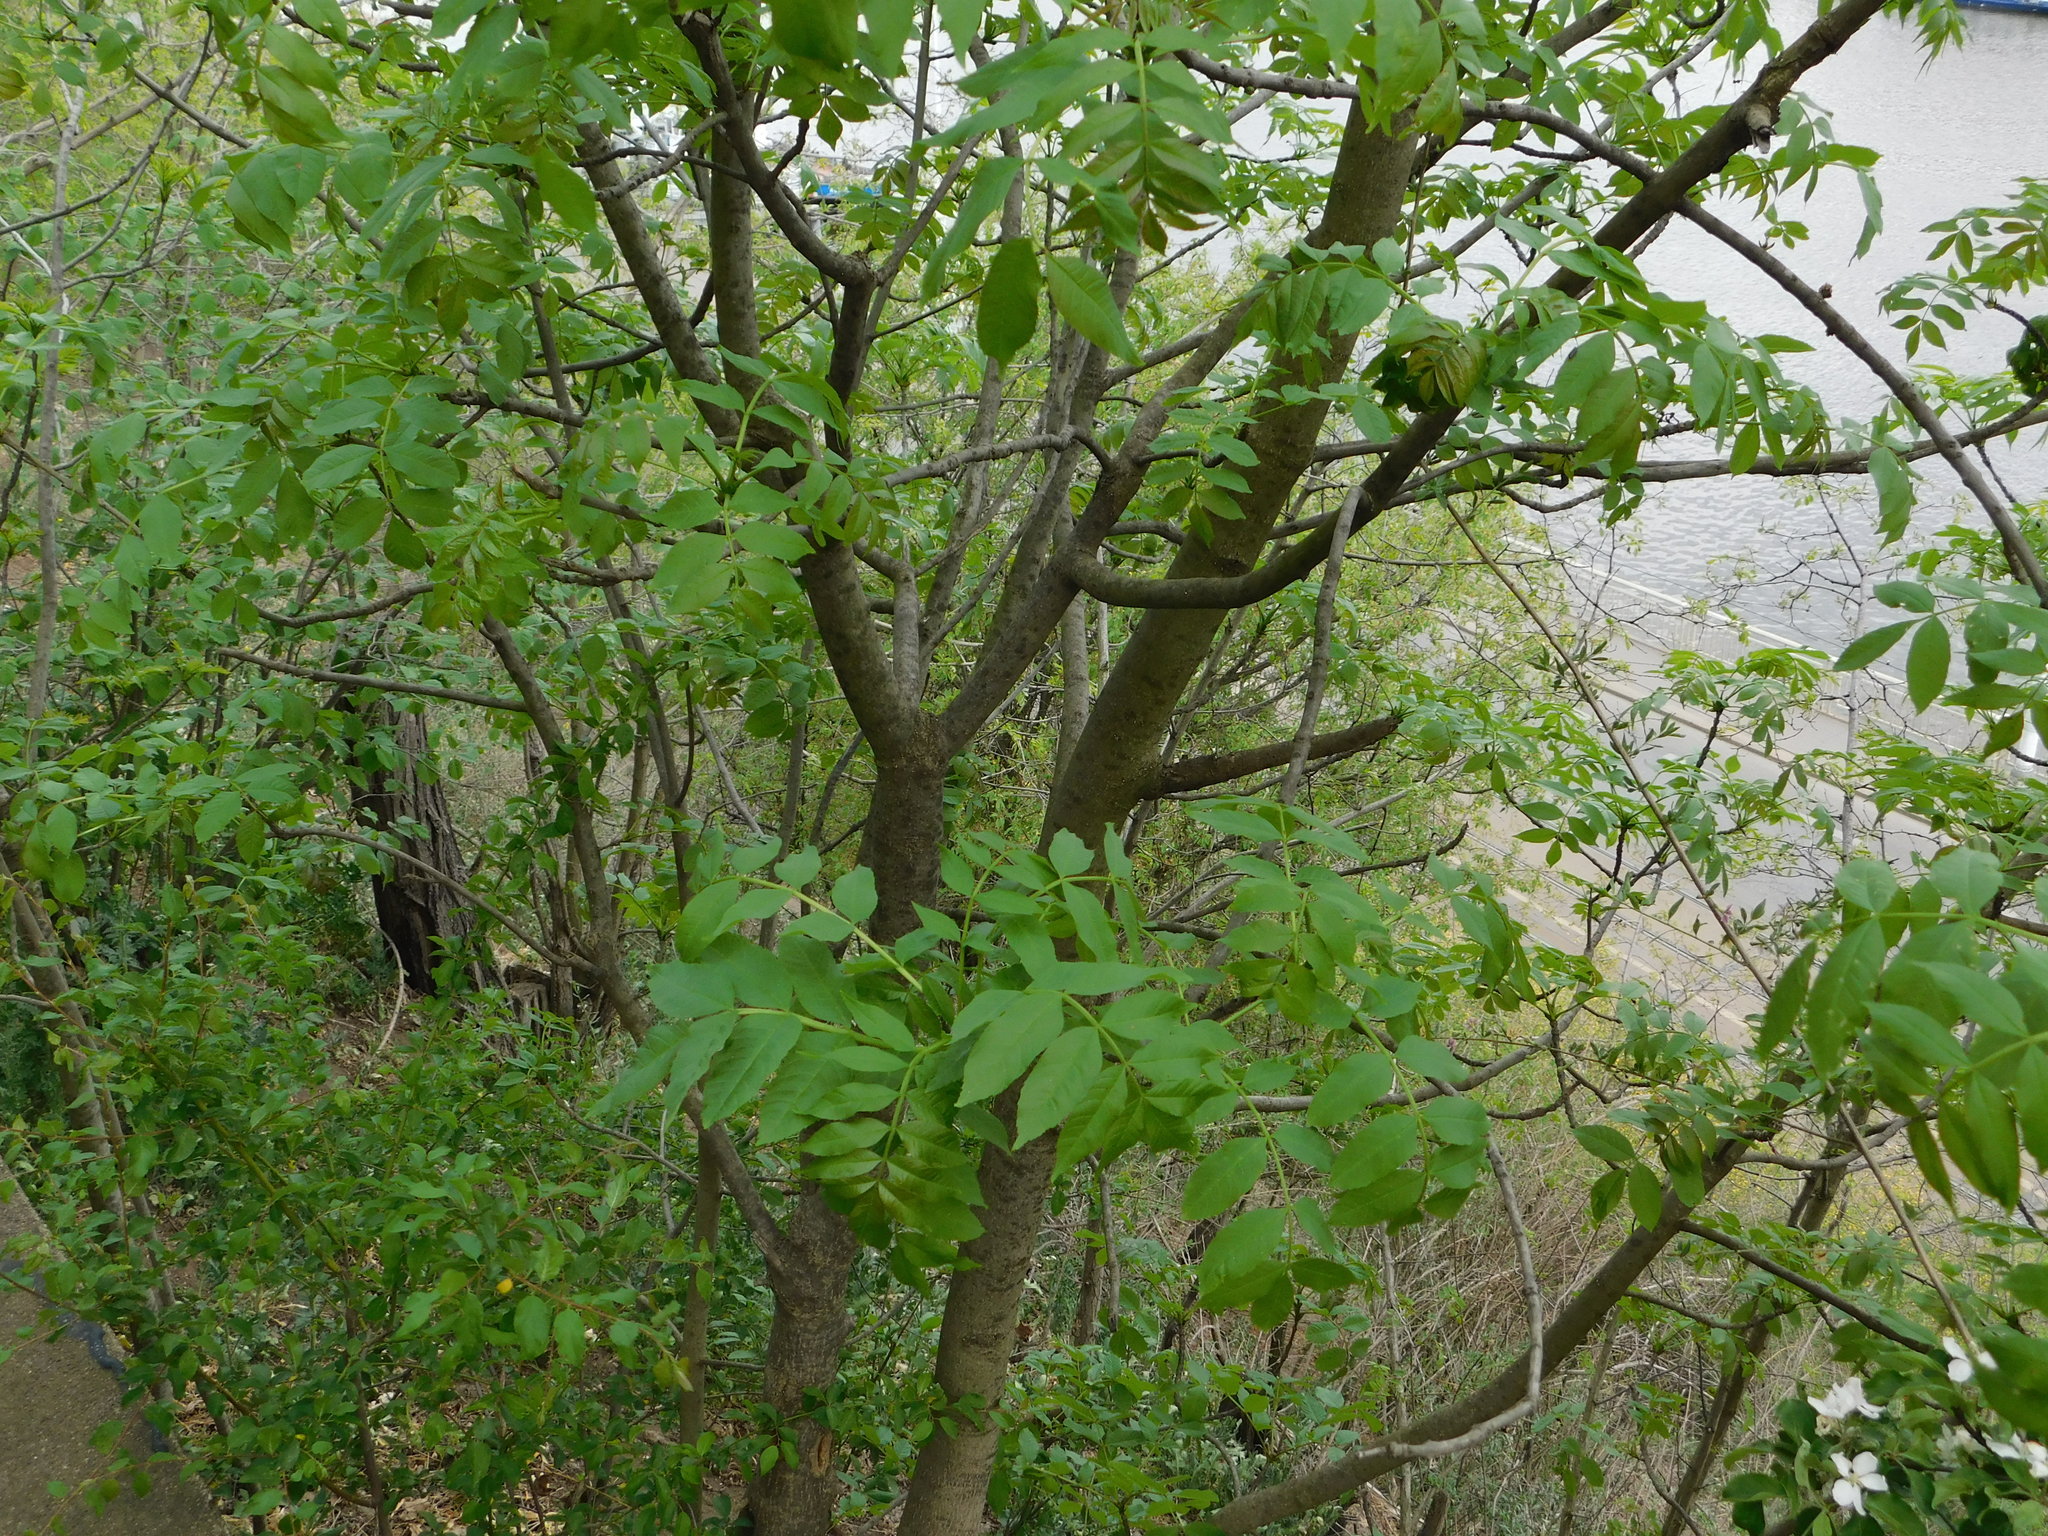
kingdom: Plantae
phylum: Tracheophyta
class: Magnoliopsida
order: Lamiales
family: Oleaceae
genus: Fraxinus
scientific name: Fraxinus excelsior
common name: European ash
